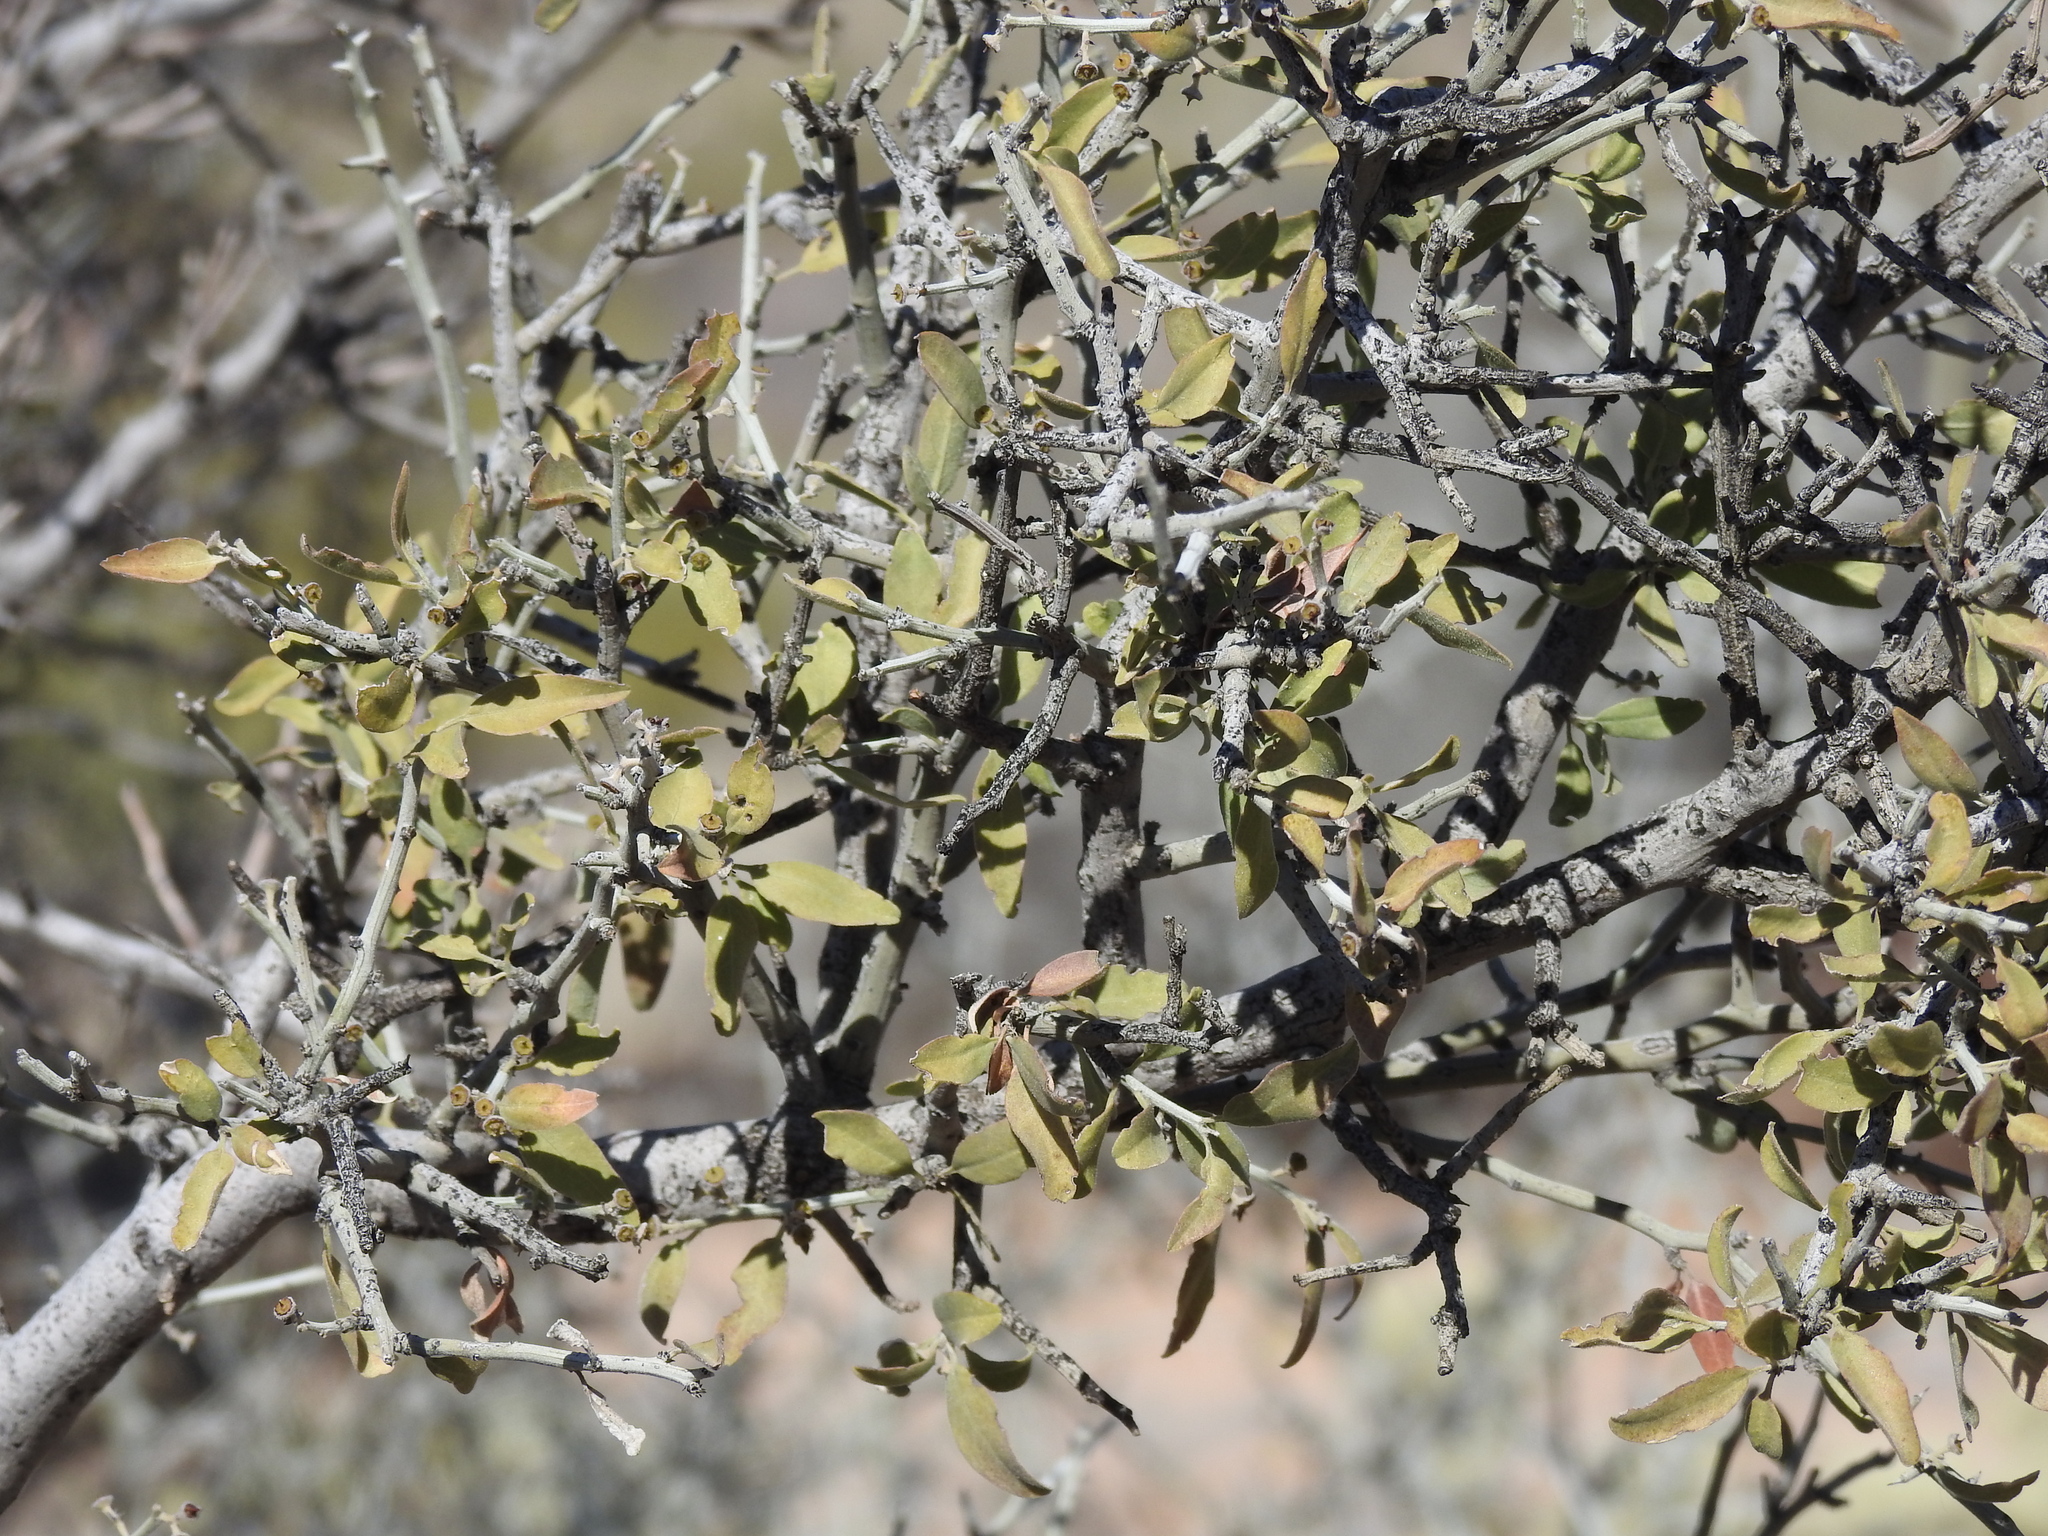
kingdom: Plantae
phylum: Tracheophyta
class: Magnoliopsida
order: Rosales
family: Rhamnaceae
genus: Sarcomphalus
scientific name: Sarcomphalus obtusifolius
